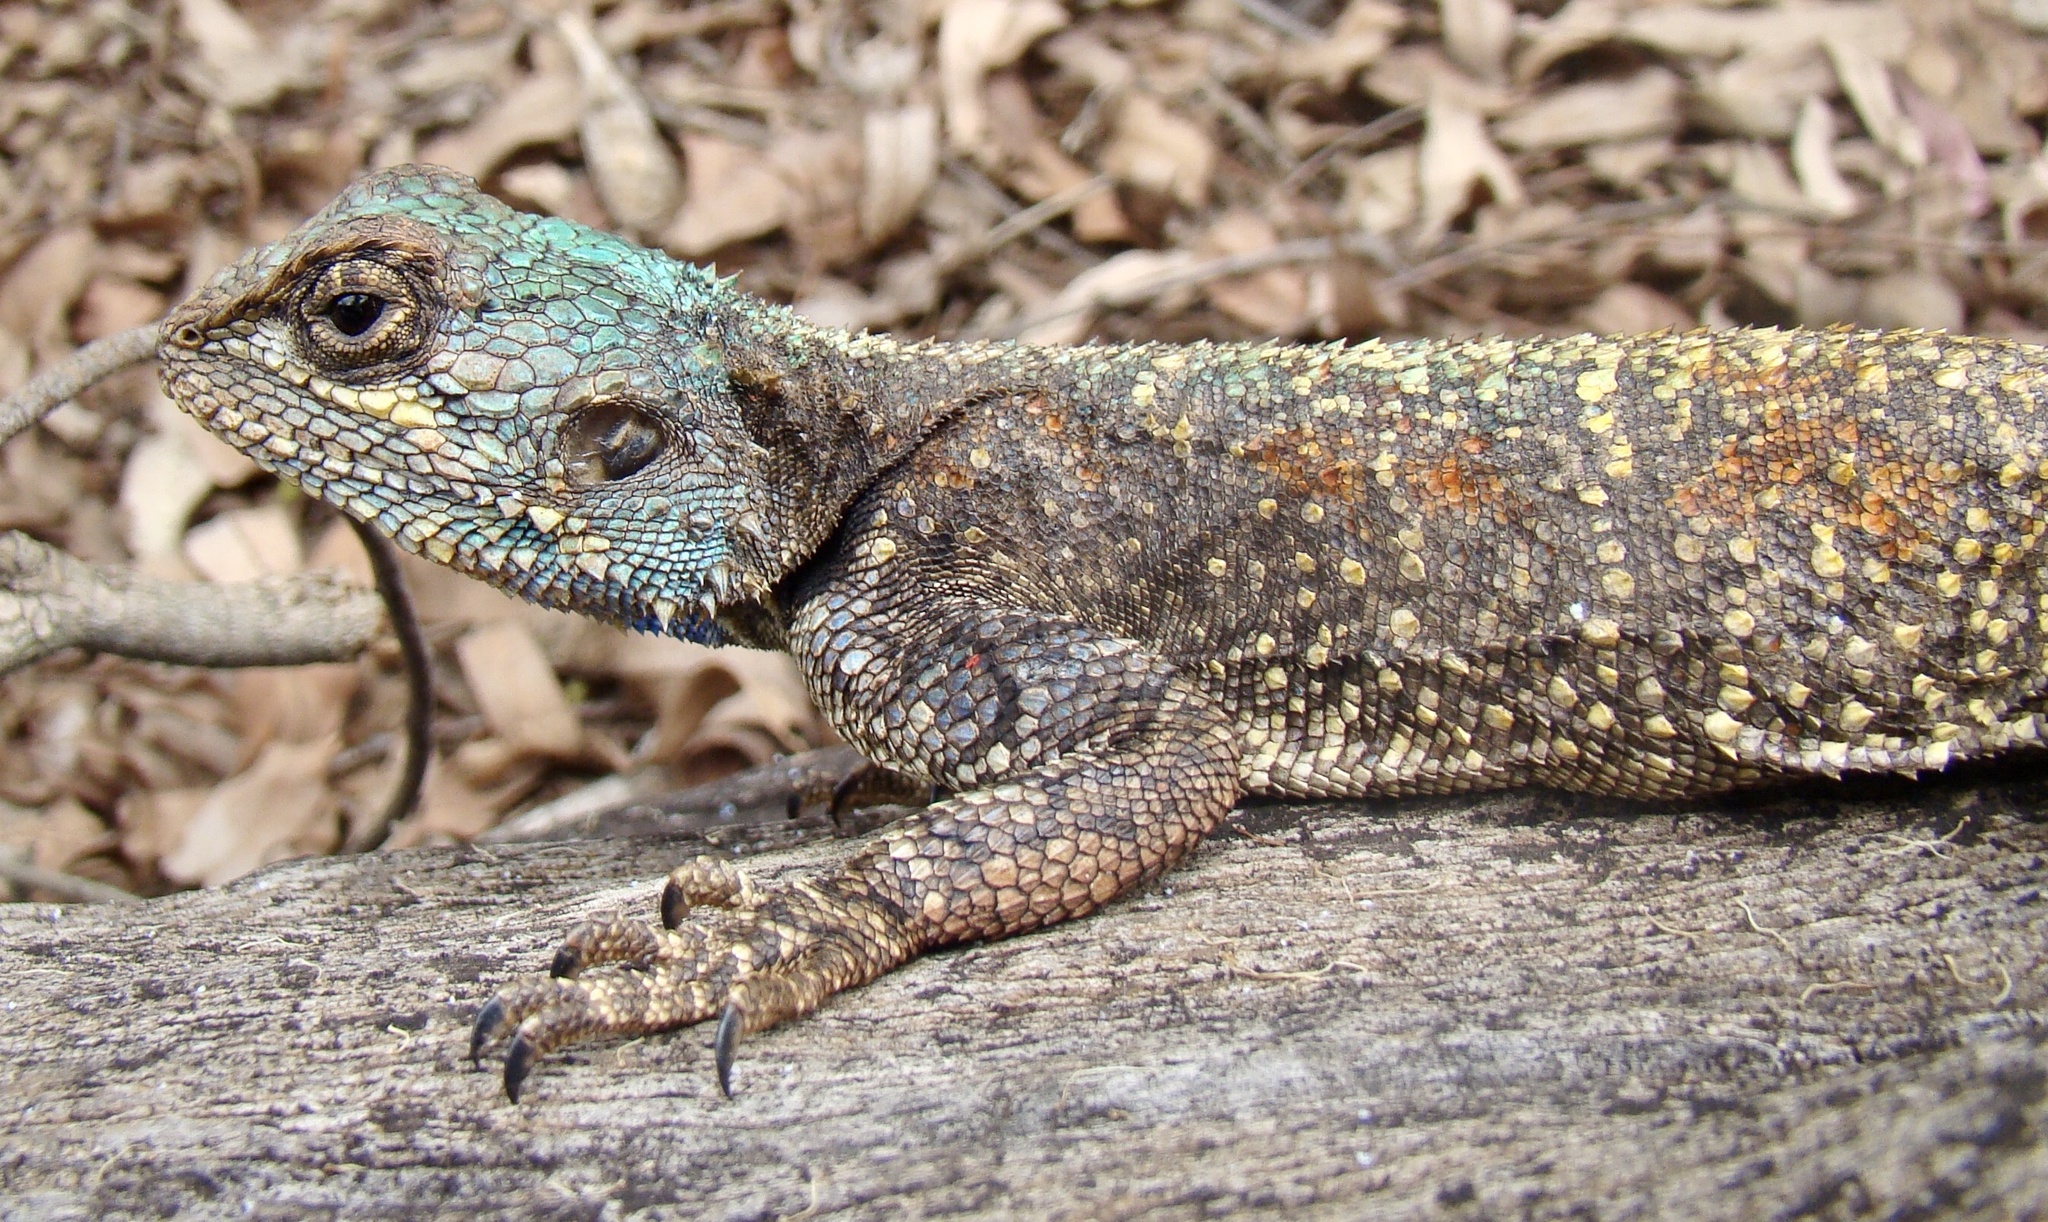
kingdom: Animalia
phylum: Chordata
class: Squamata
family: Agamidae
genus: Acanthocercus
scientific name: Acanthocercus atricollis
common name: Southern tree agama
